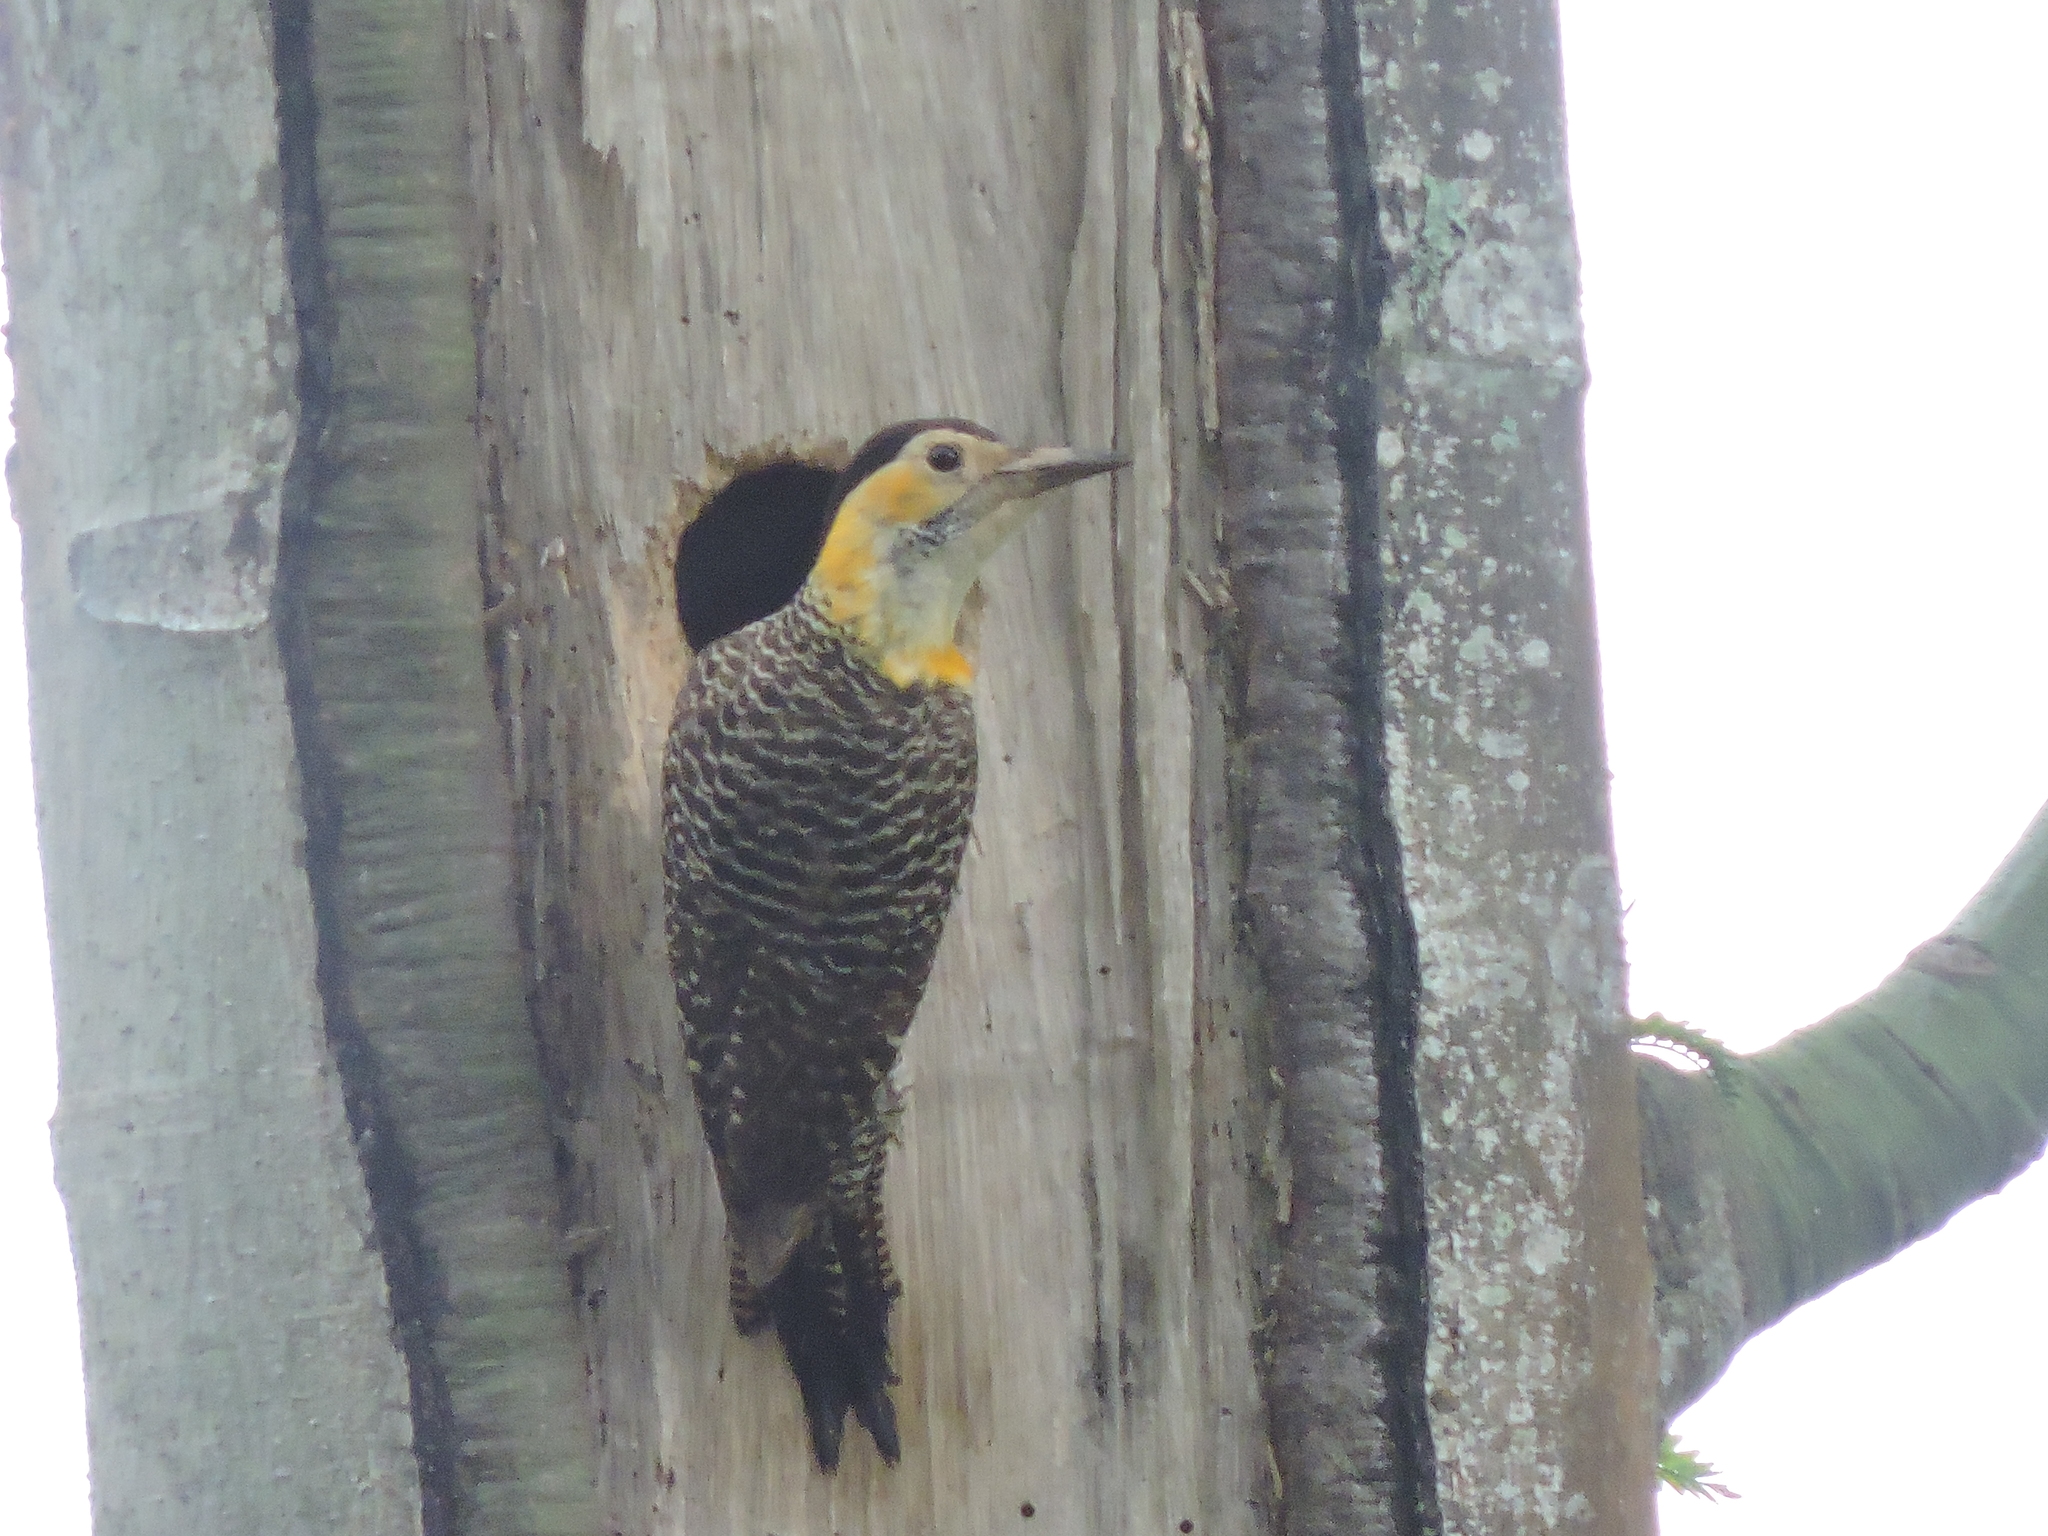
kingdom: Animalia
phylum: Chordata
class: Aves
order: Piciformes
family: Picidae
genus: Colaptes
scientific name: Colaptes campestris
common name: Campo flicker
